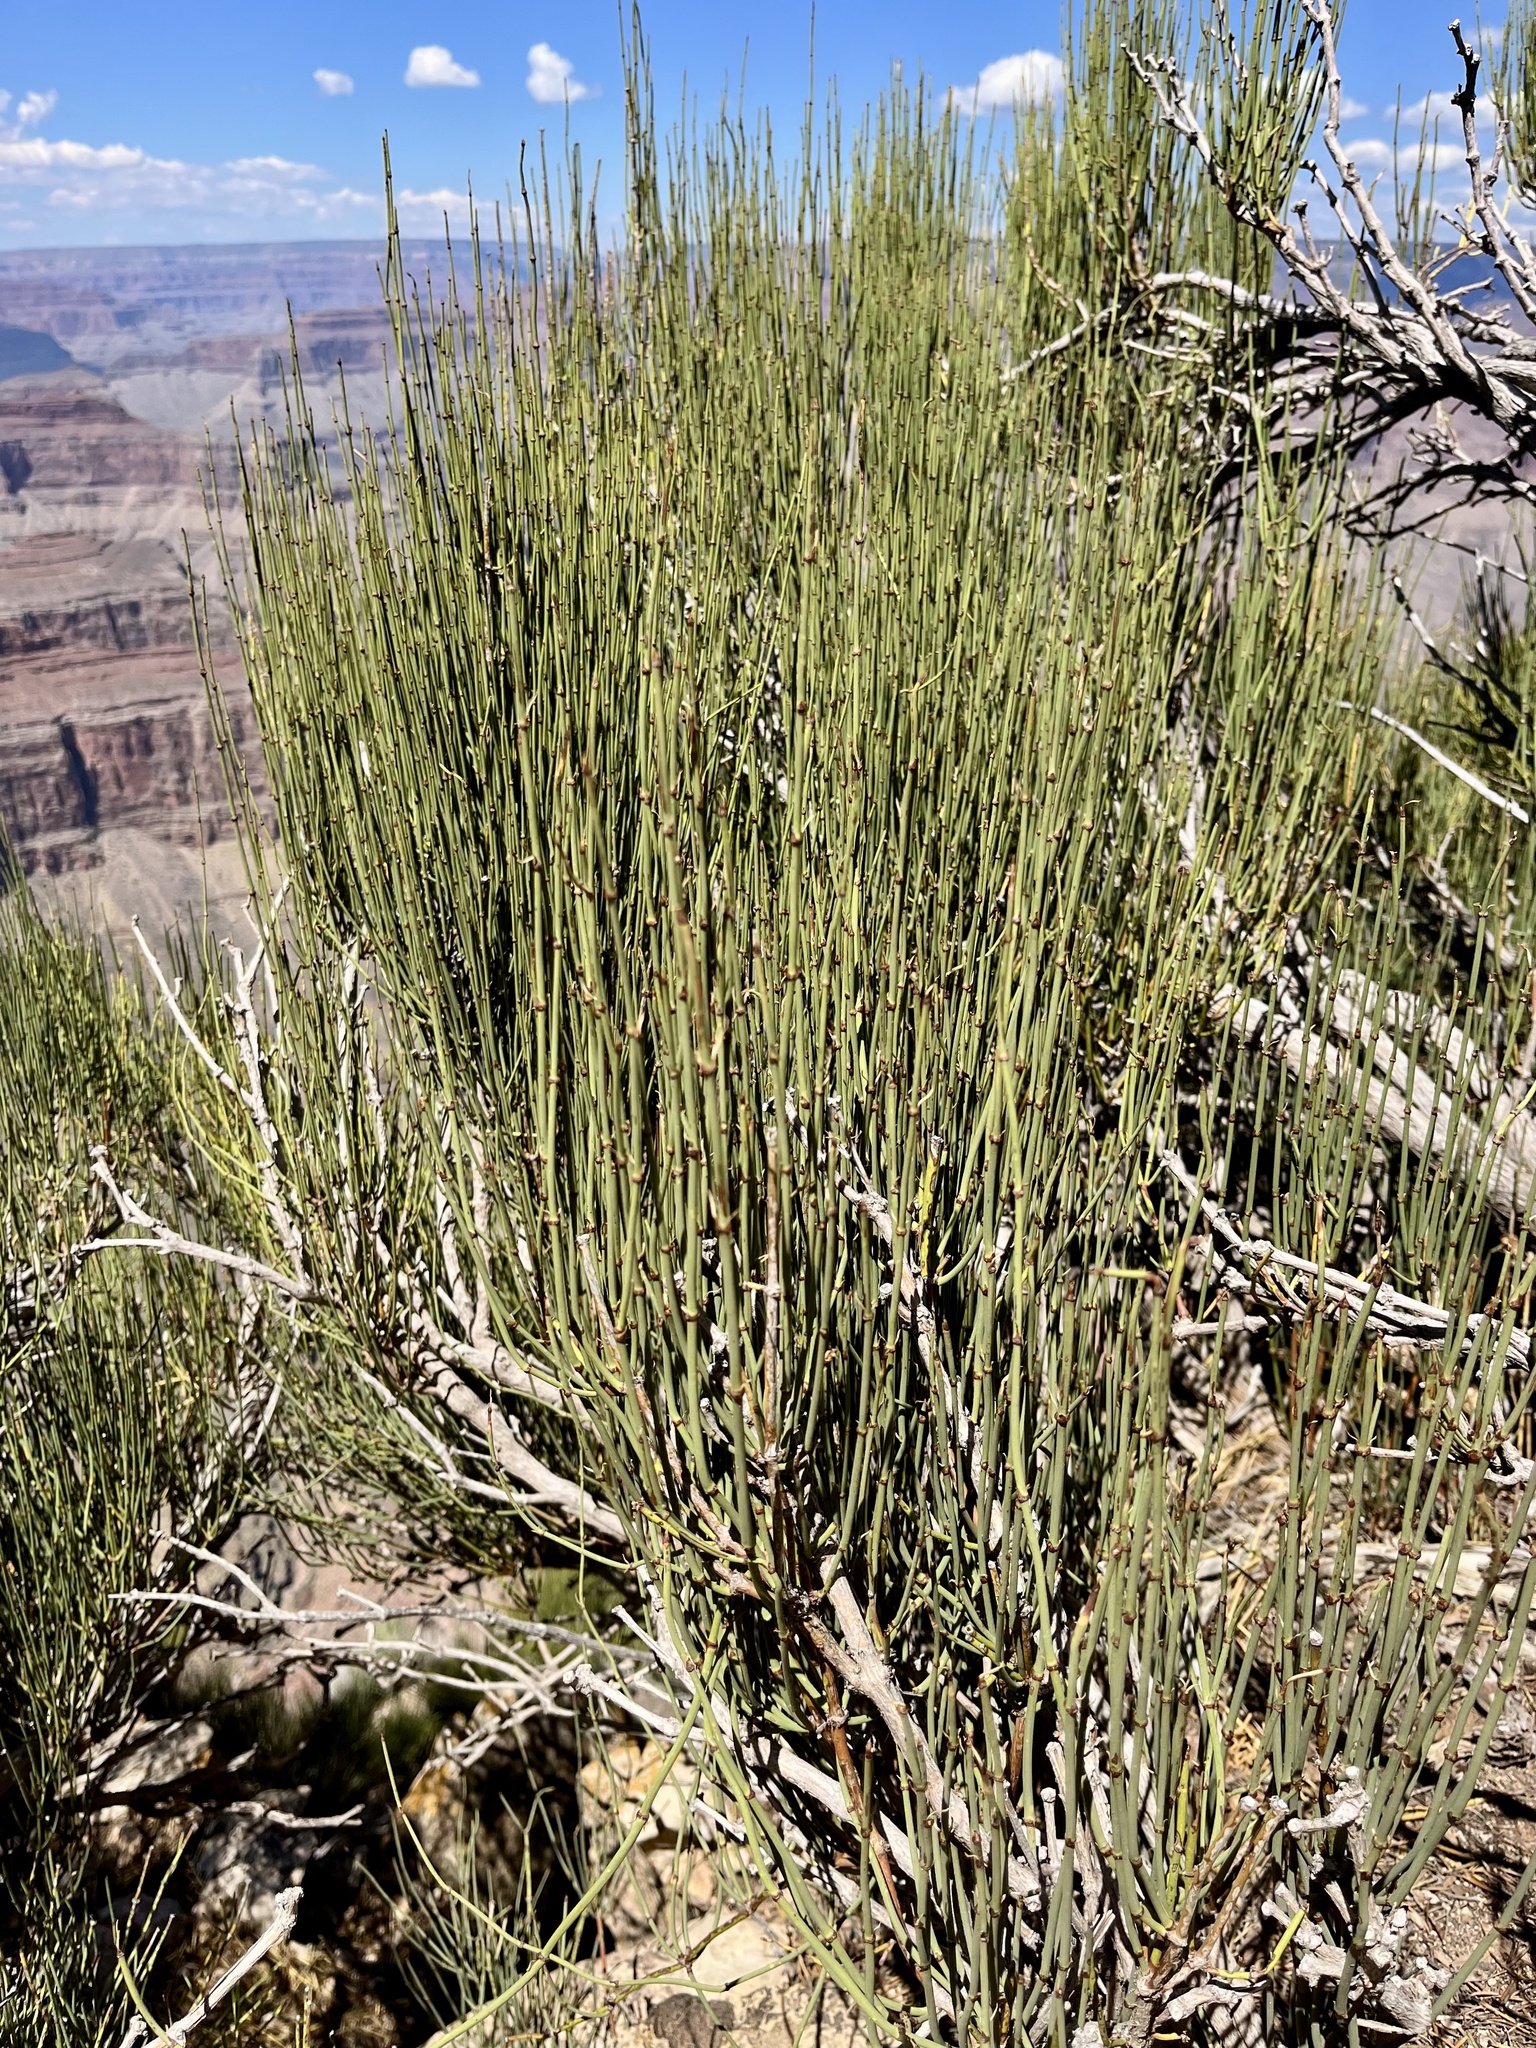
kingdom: Plantae
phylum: Tracheophyta
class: Gnetopsida
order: Ephedrales
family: Ephedraceae
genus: Ephedra
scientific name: Ephedra viridis
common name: Green ephedra
